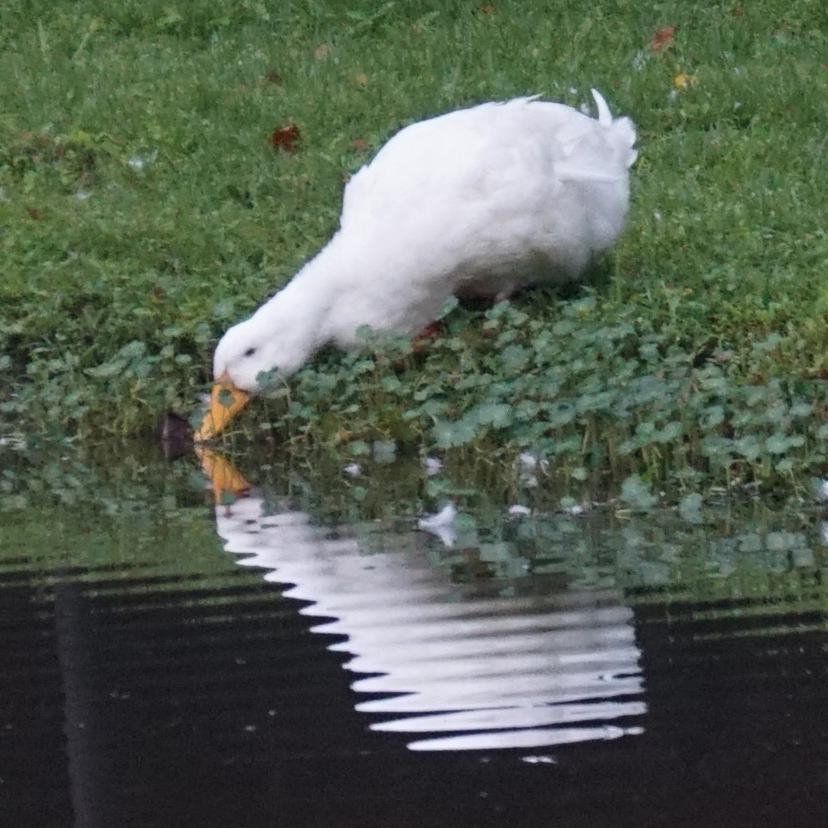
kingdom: Animalia
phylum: Chordata
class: Aves
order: Anseriformes
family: Anatidae
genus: Anas
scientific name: Anas platyrhynchos
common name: Mallard
